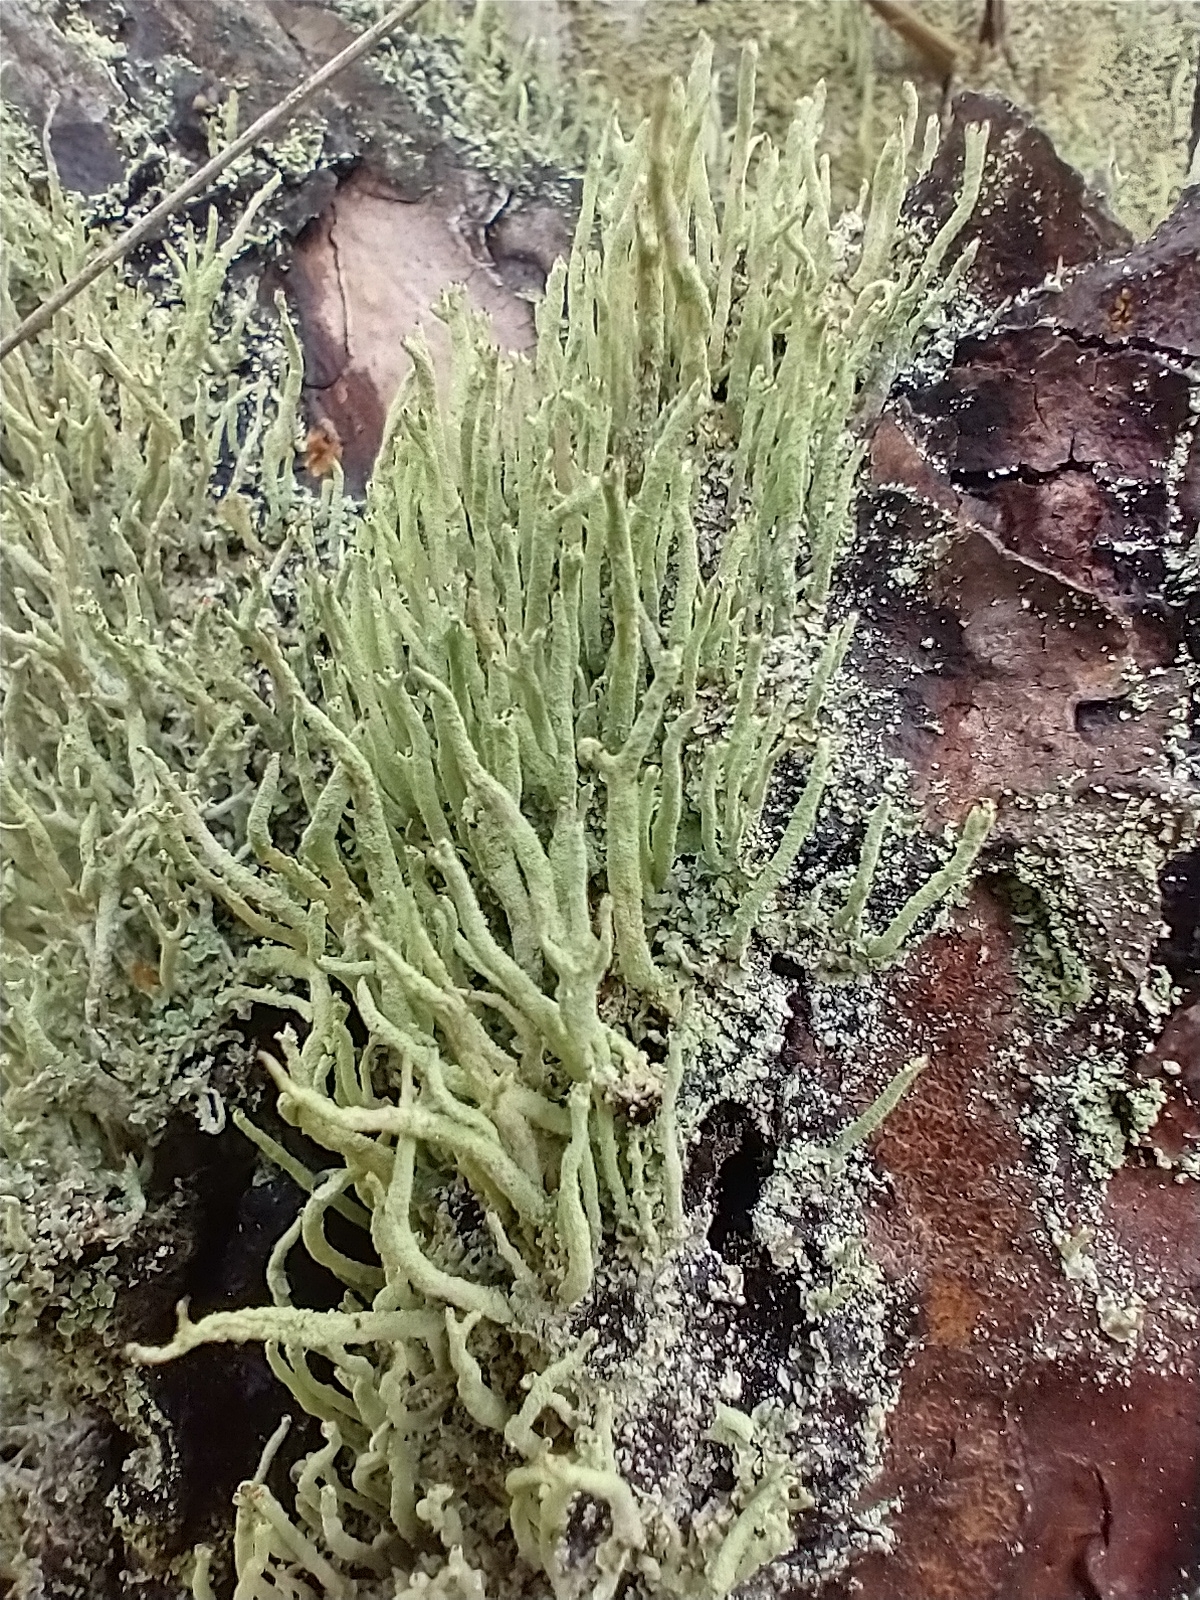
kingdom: Fungi
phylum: Ascomycota
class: Lecanoromycetes
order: Lecanorales
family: Cladoniaceae
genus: Cladonia
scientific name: Cladonia coniocraea
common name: Common powderhorn
